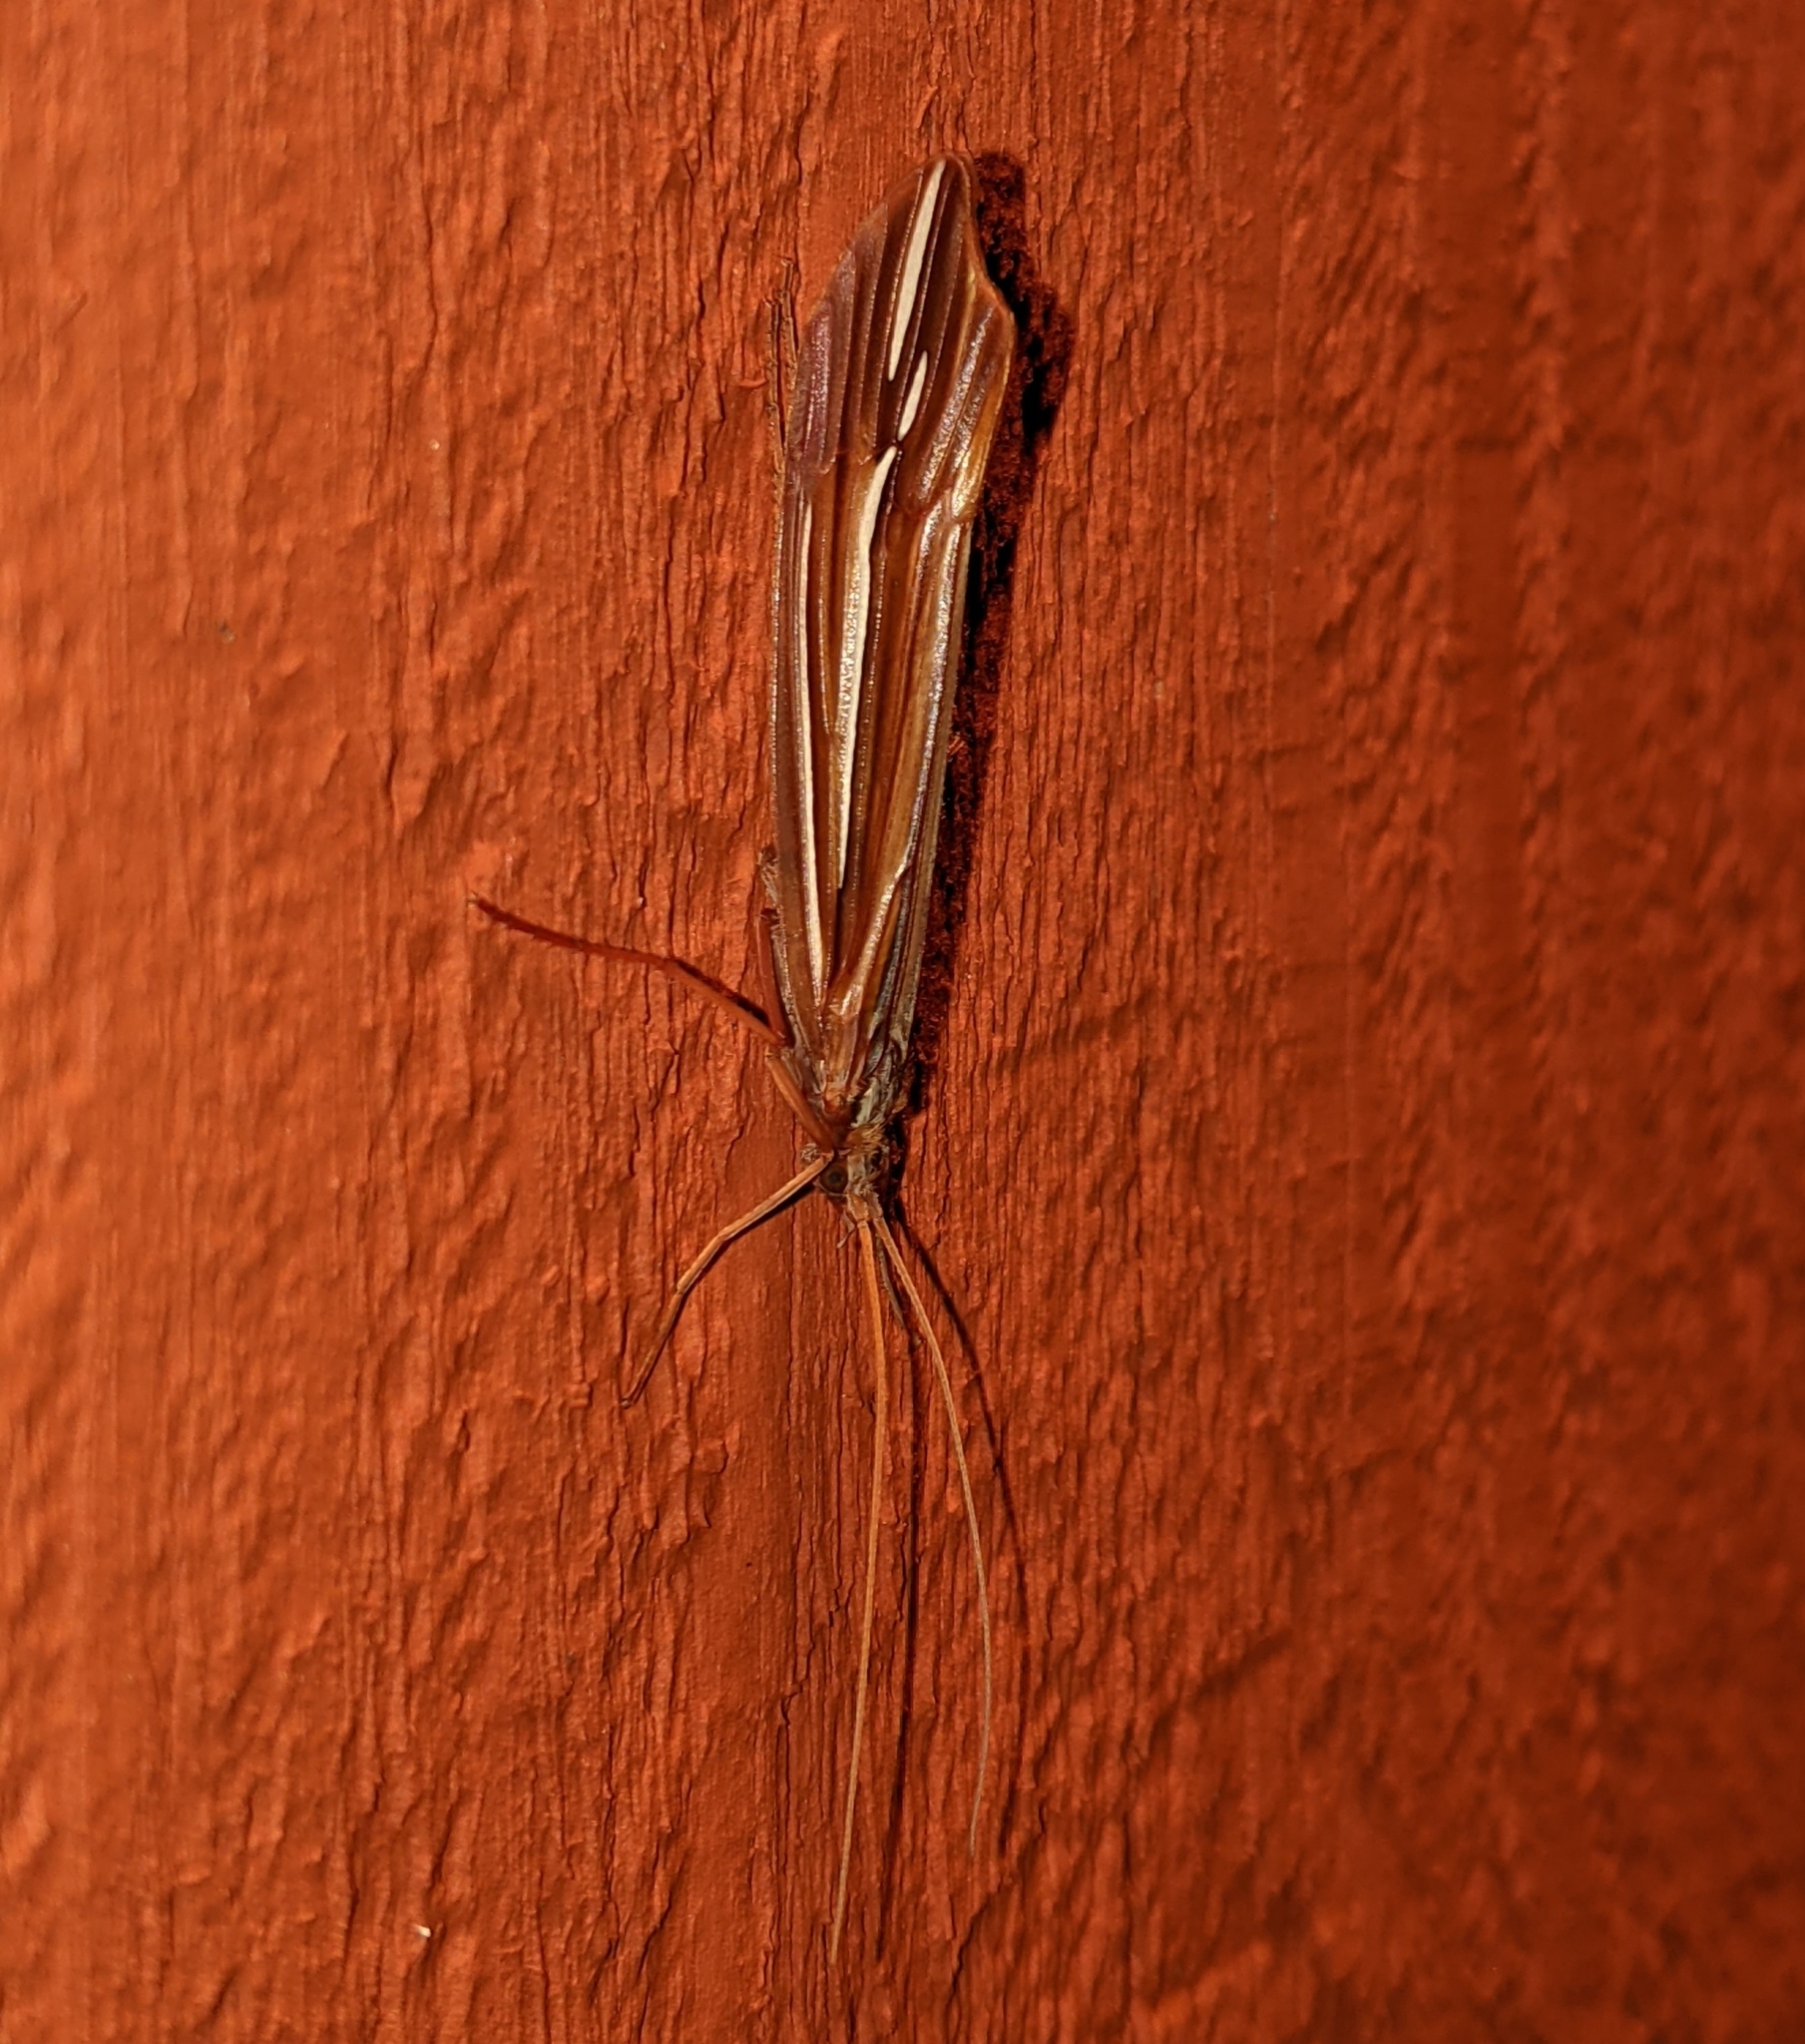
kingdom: Animalia
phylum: Arthropoda
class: Insecta
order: Trichoptera
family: Limnephilidae
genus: Psychoglypha
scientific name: Psychoglypha bella
